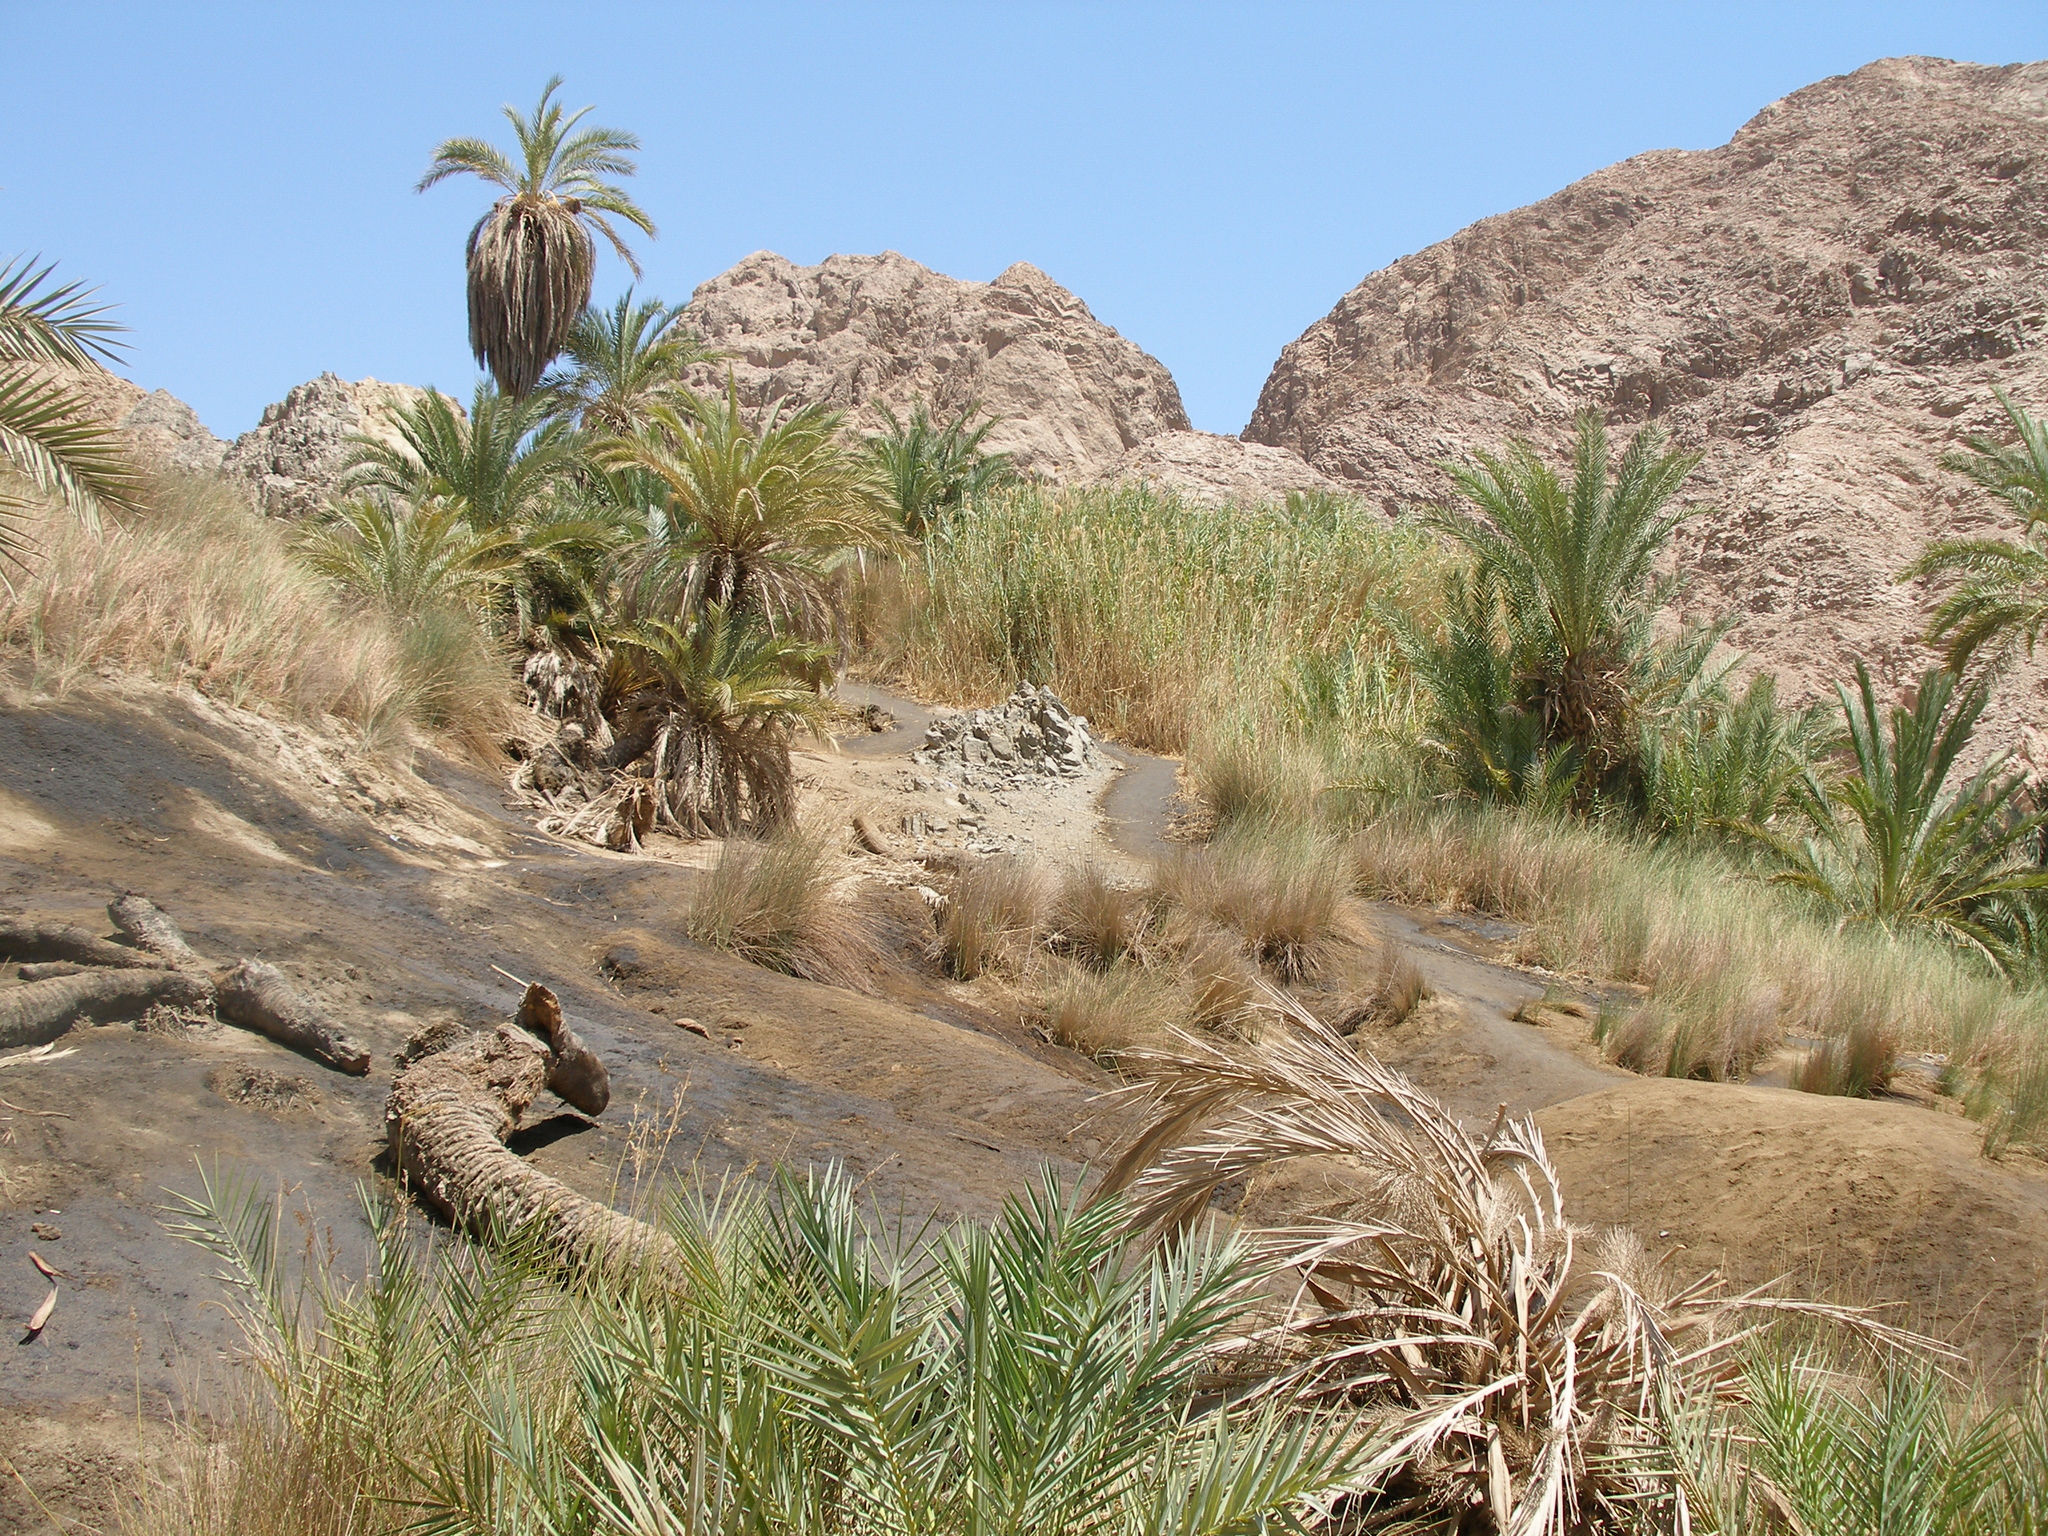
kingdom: Plantae
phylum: Tracheophyta
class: Liliopsida
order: Arecales
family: Arecaceae
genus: Phoenix
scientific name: Phoenix dactylifera
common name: Date palm
